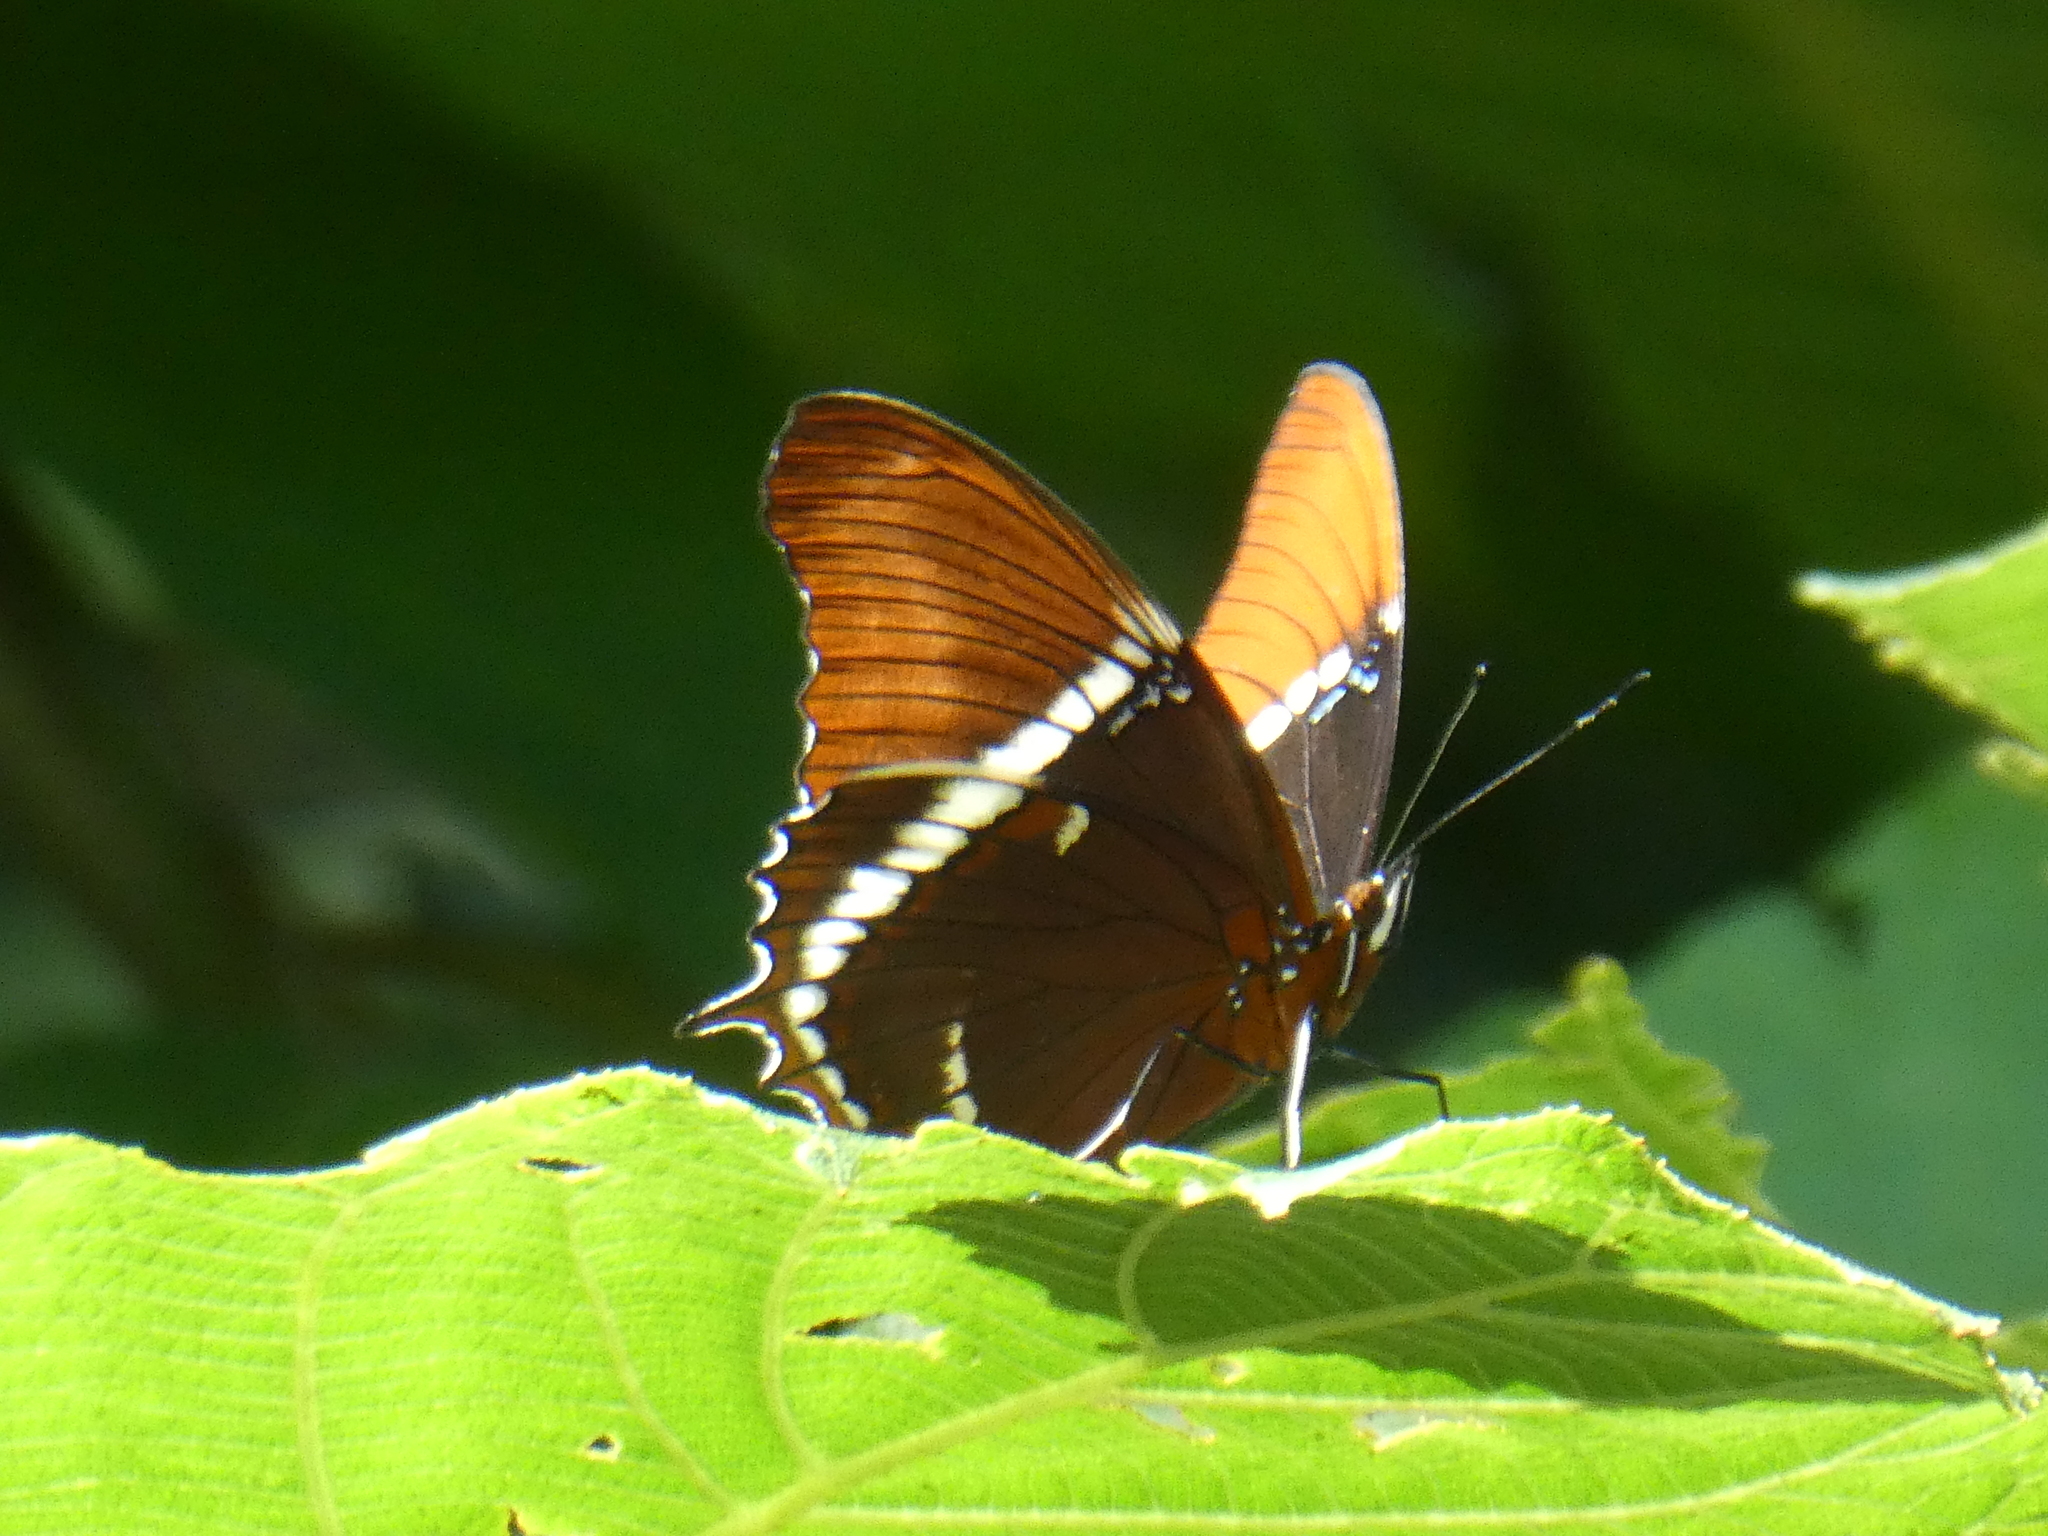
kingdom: Animalia
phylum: Arthropoda
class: Insecta
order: Lepidoptera
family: Nymphalidae
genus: Siproeta
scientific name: Siproeta epaphus
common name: Rusty-tipped page
